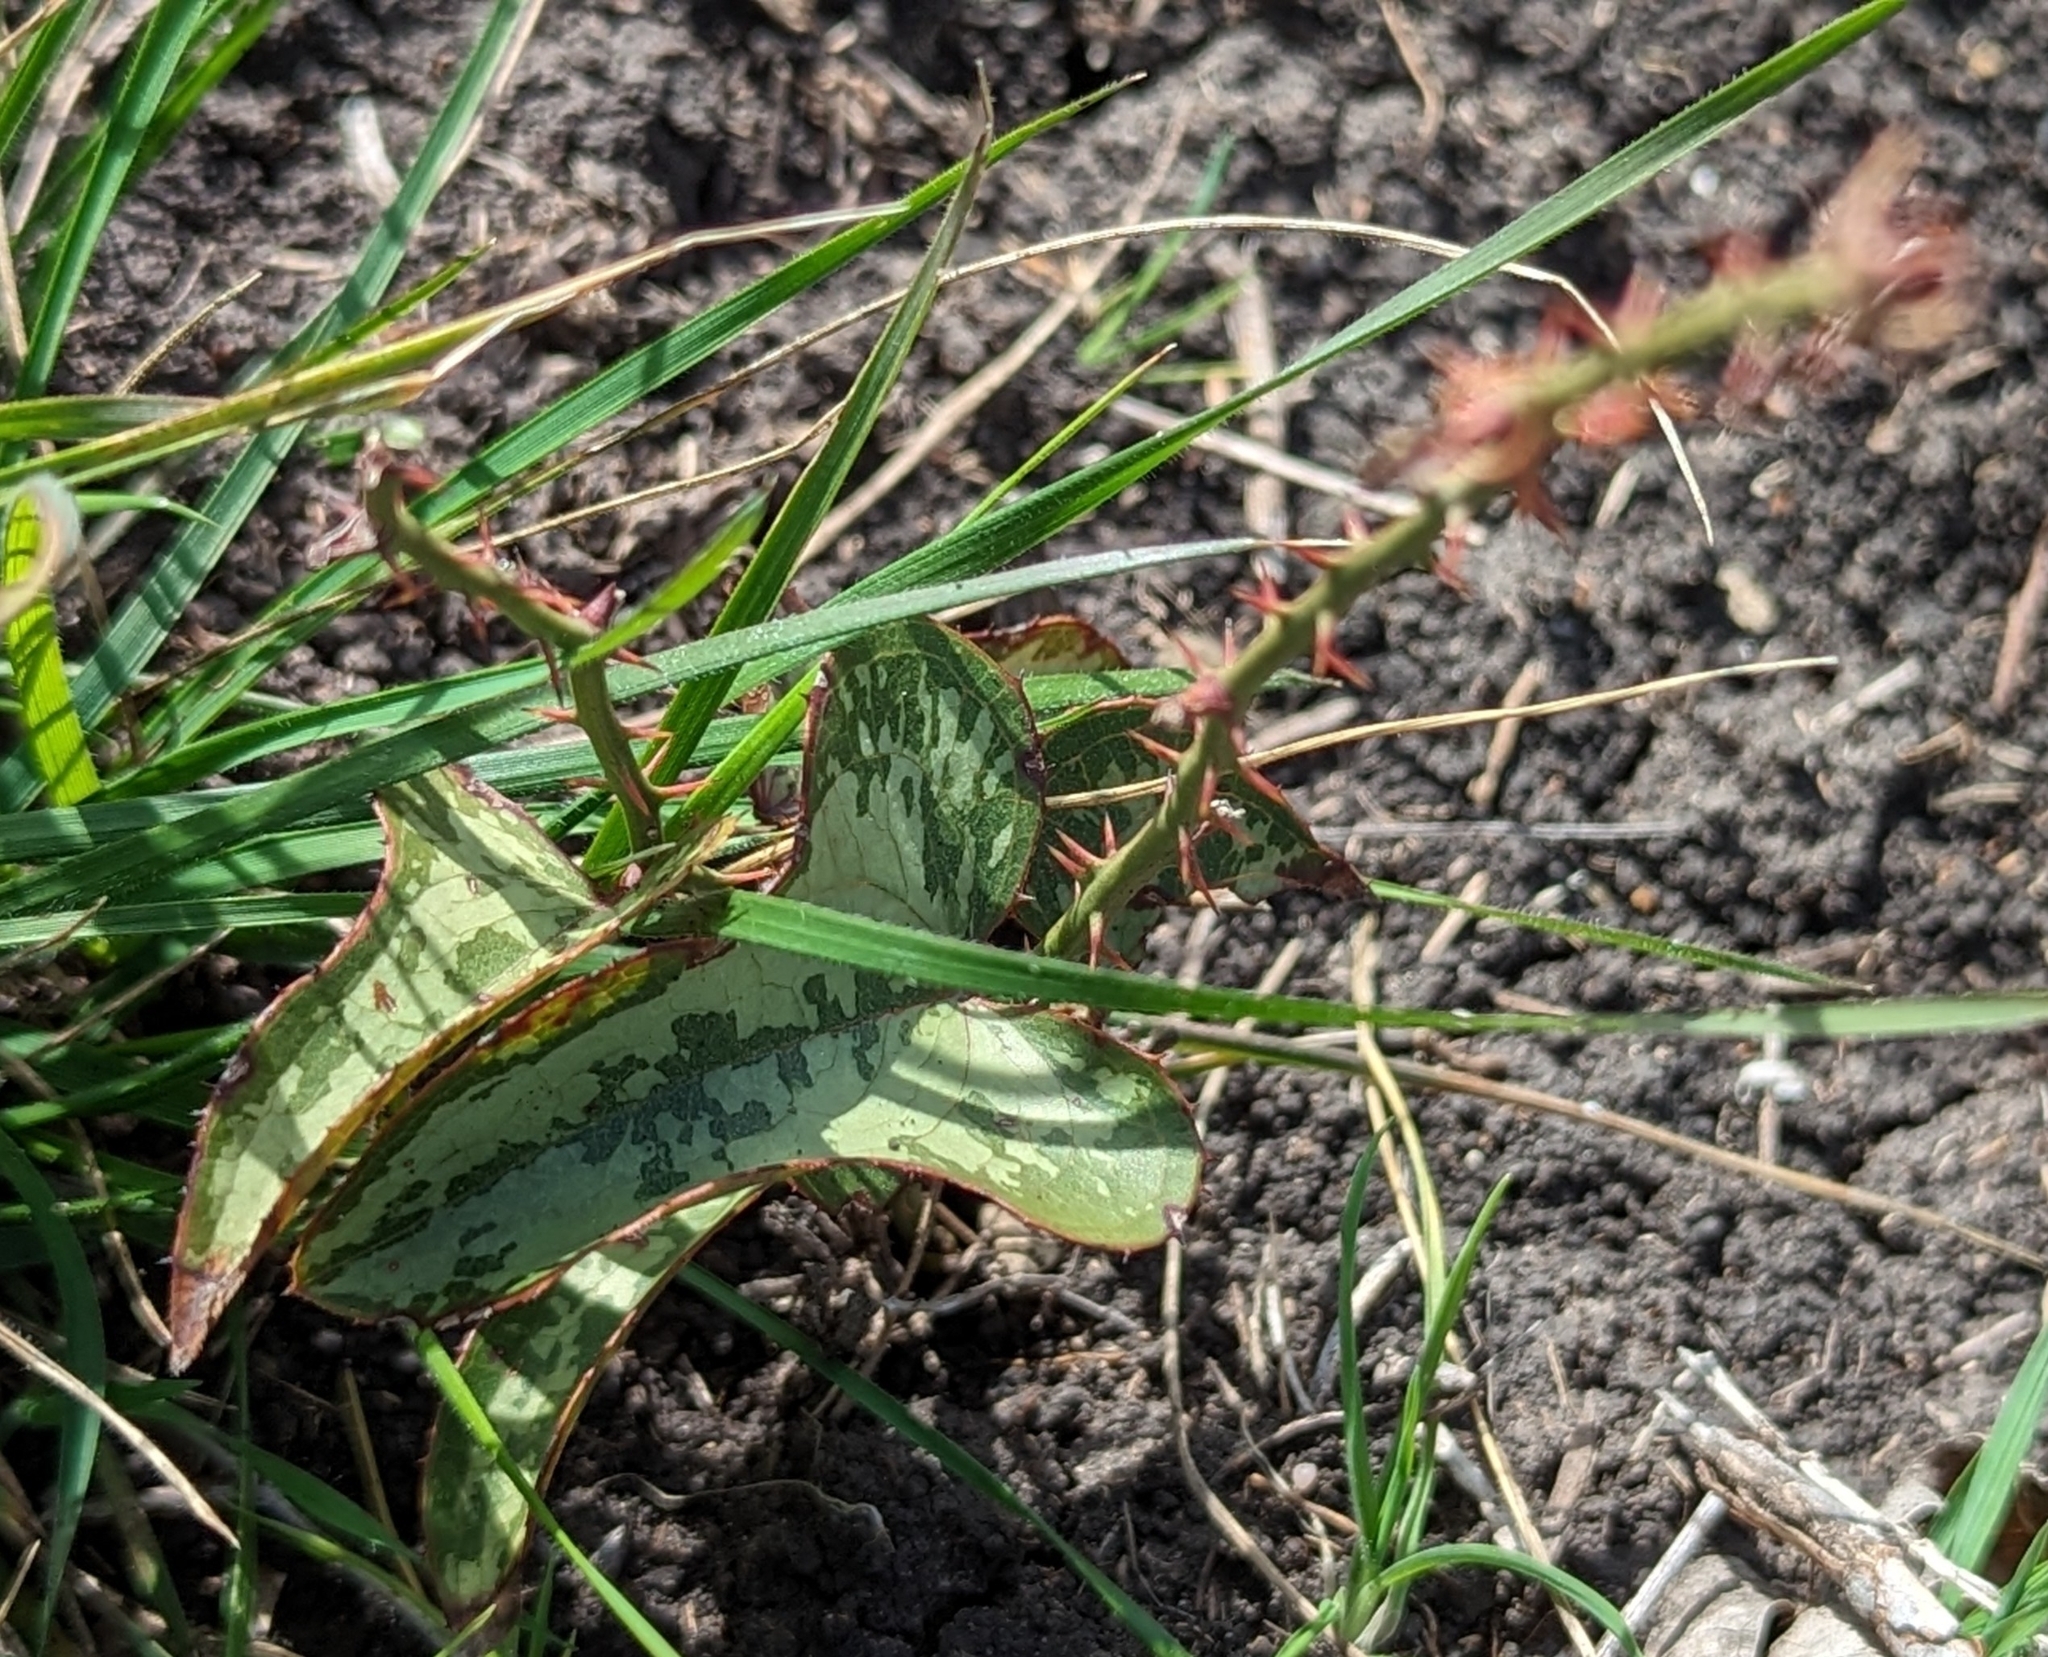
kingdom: Plantae
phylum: Tracheophyta
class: Liliopsida
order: Liliales
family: Smilacaceae
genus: Smilax
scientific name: Smilax bona-nox
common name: Catbrier
